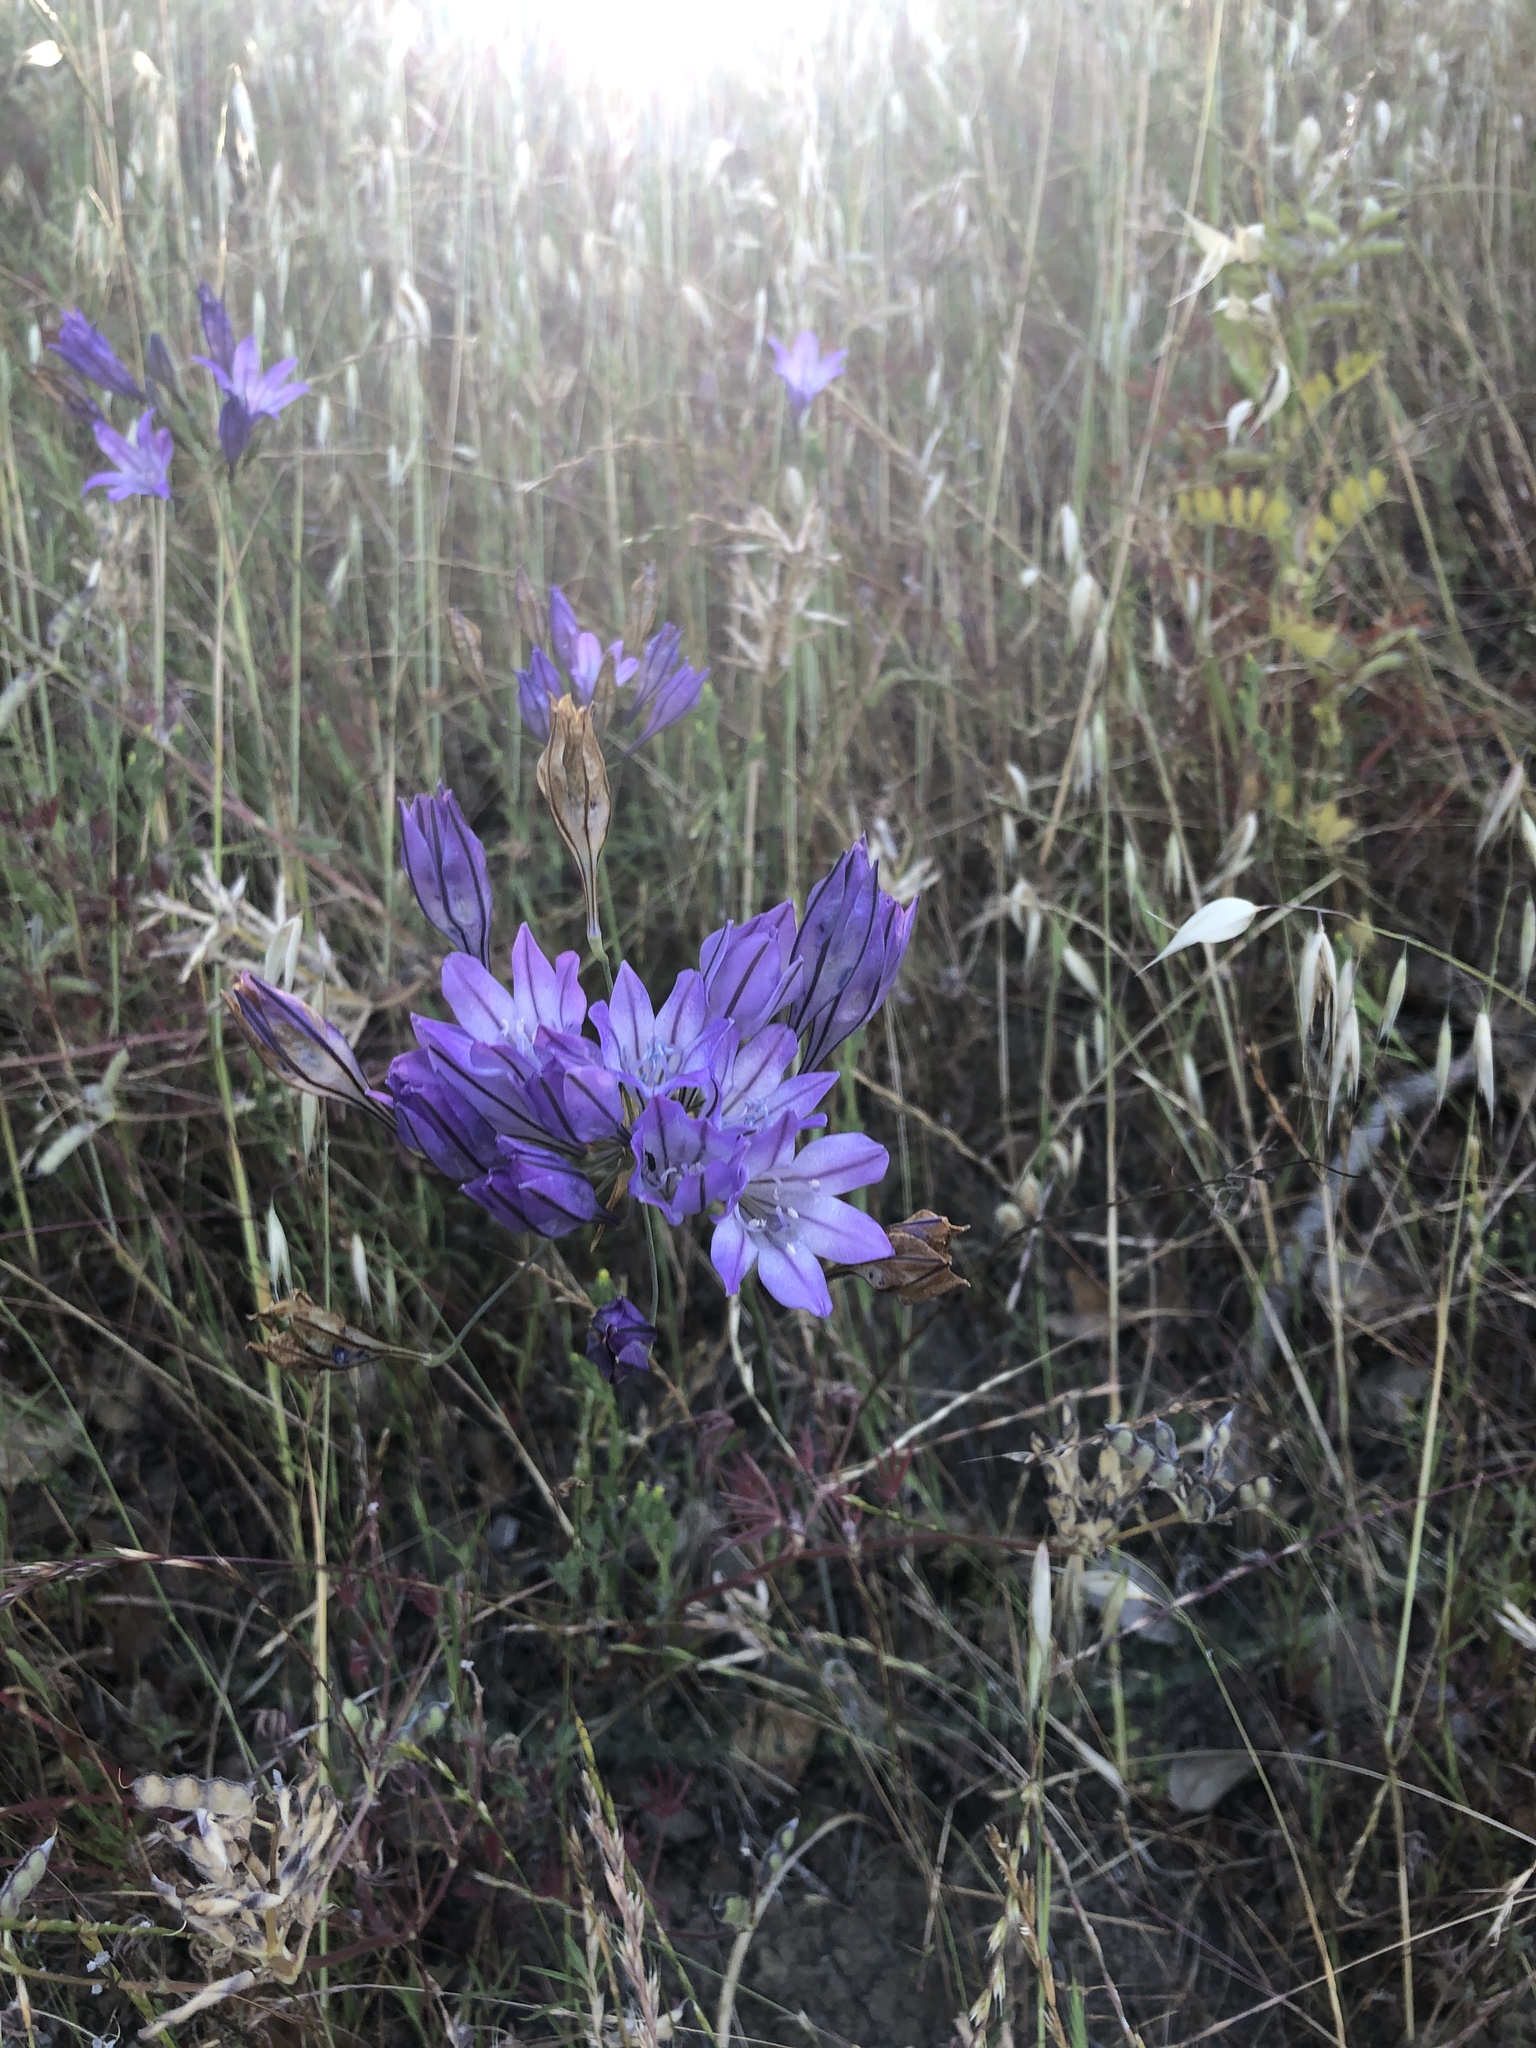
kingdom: Plantae
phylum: Tracheophyta
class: Liliopsida
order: Asparagales
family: Asparagaceae
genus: Triteleia
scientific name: Triteleia laxa
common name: Triplet-lily
